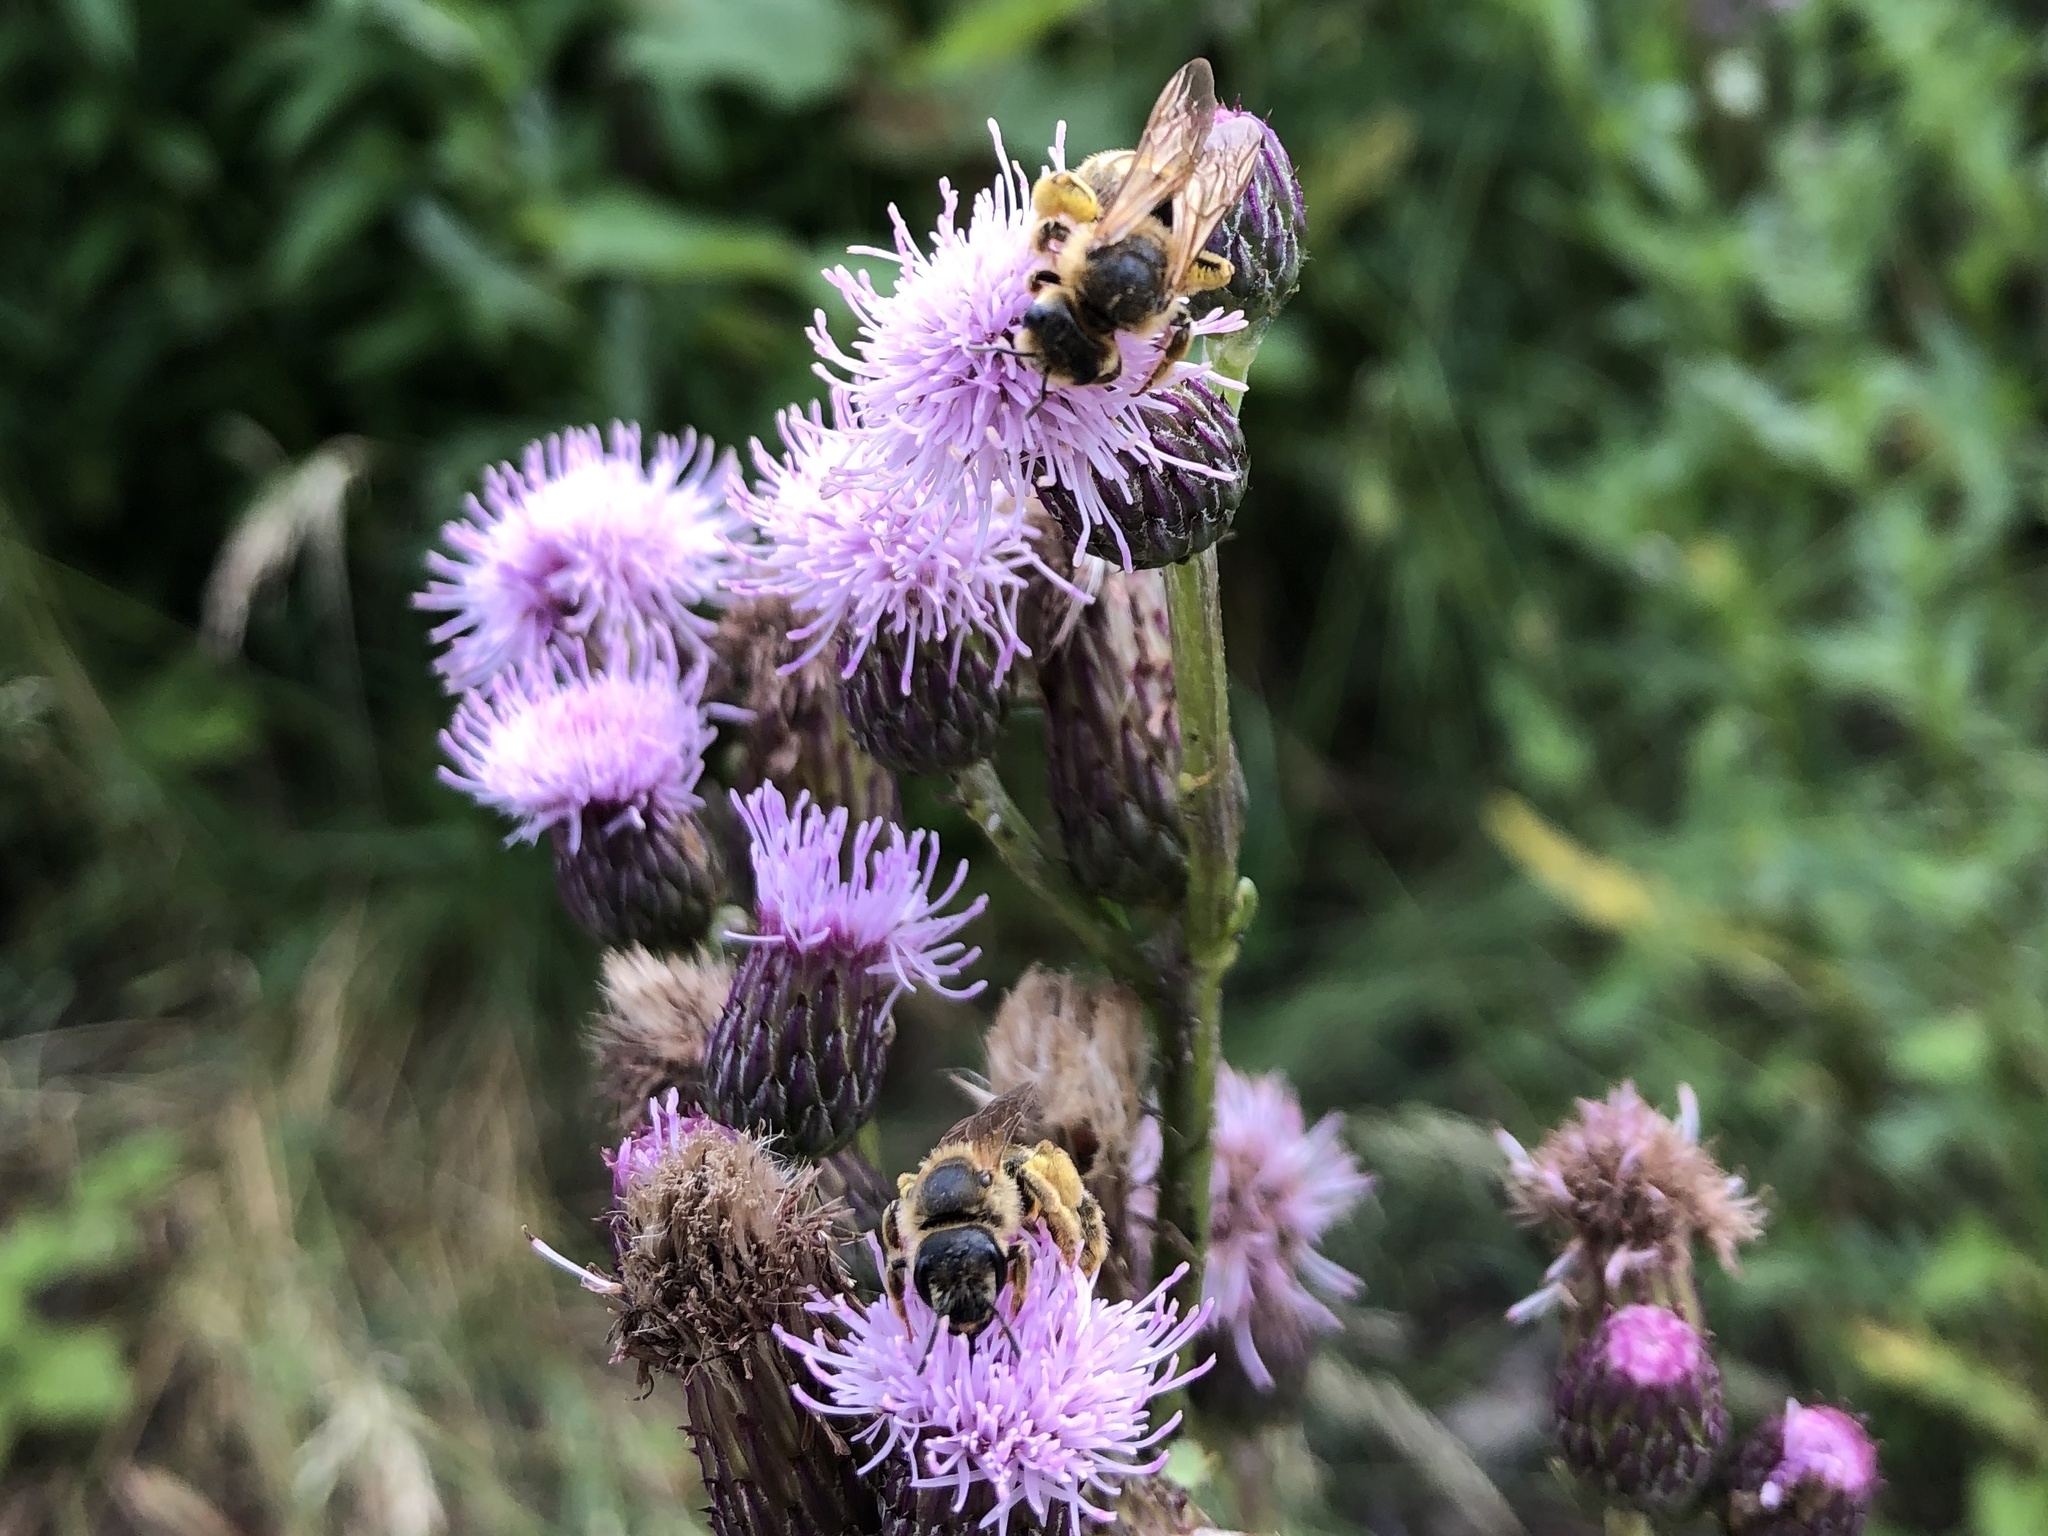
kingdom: Animalia
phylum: Arthropoda
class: Insecta
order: Hymenoptera
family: Halictidae
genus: Halictus
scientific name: Halictus scabiosae
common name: Great banded furrow bee
